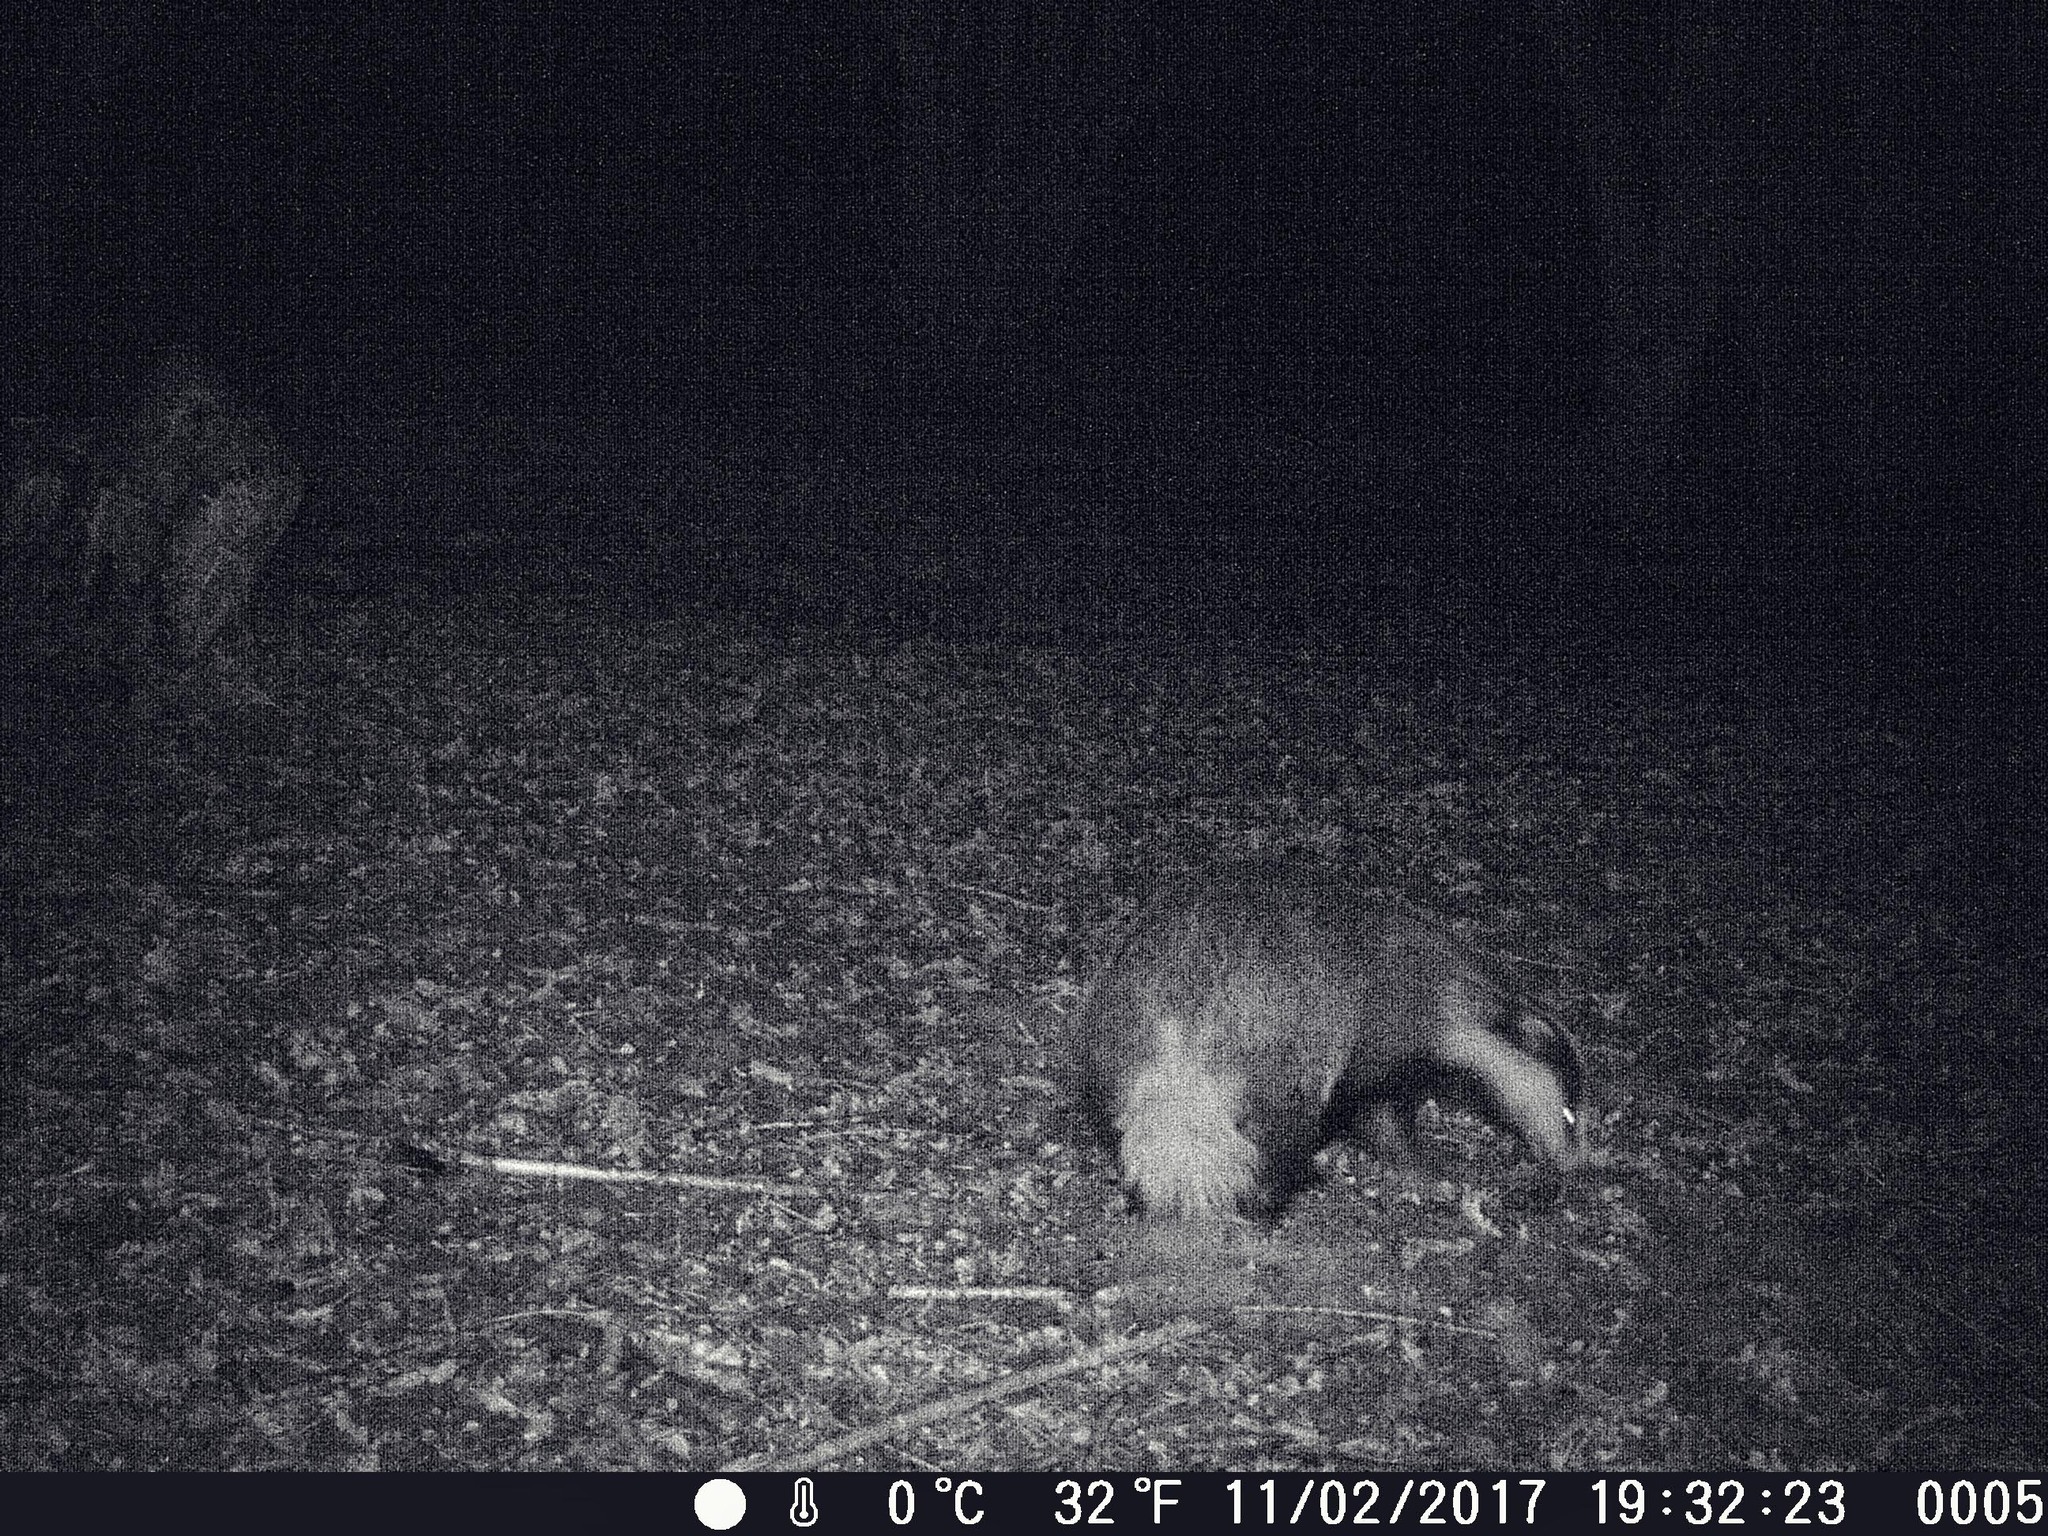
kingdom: Animalia
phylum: Chordata
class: Mammalia
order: Carnivora
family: Mustelidae
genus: Meles
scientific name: Meles meles
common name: Eurasian badger
